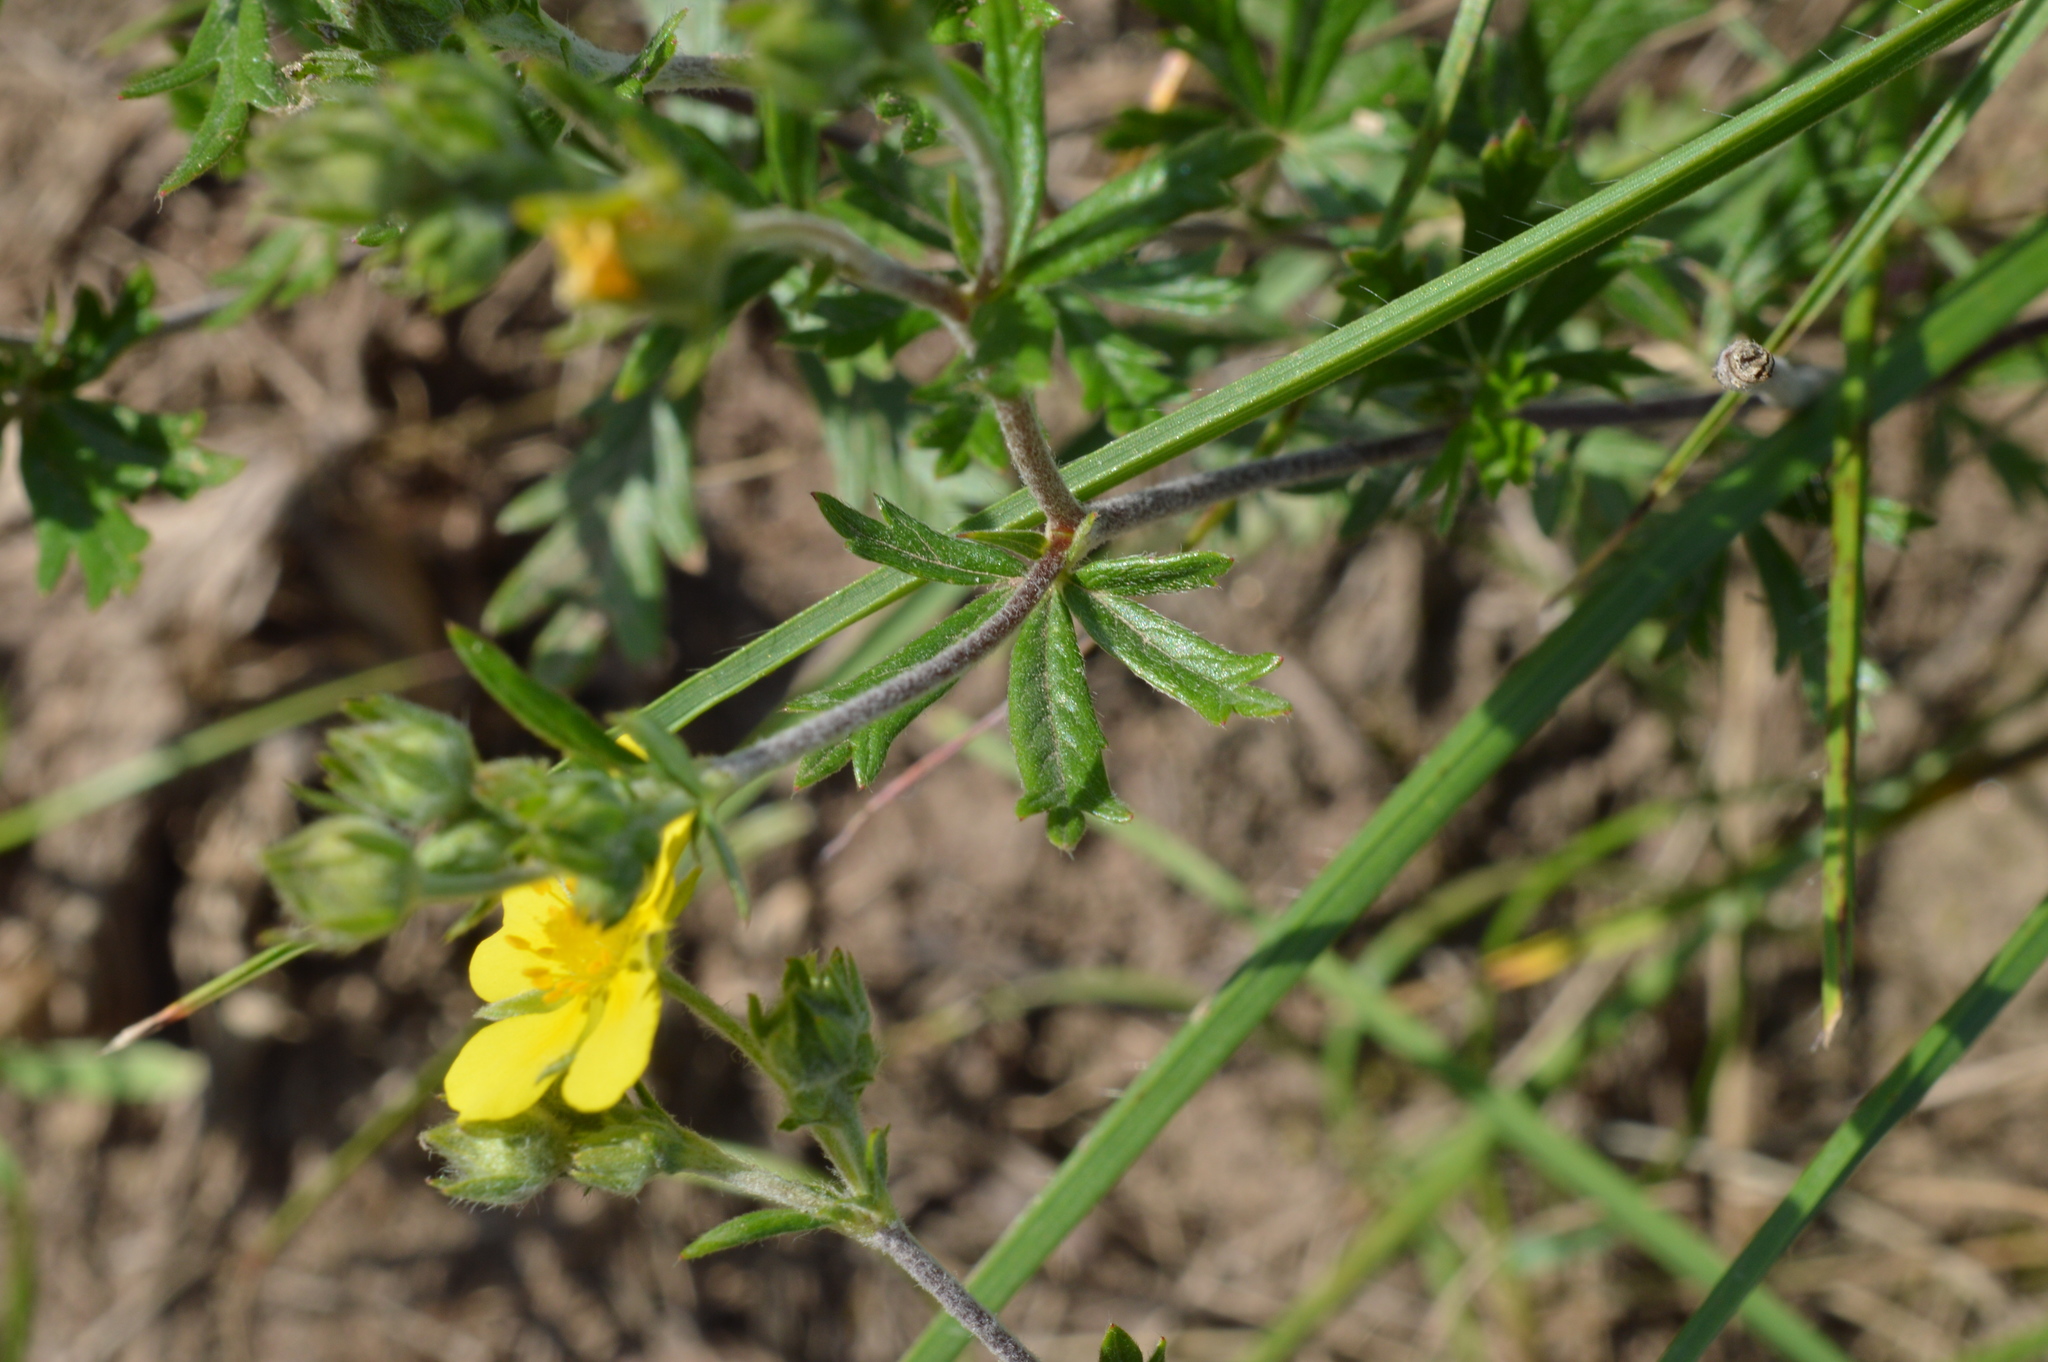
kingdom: Plantae
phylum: Tracheophyta
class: Magnoliopsida
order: Rosales
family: Rosaceae
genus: Potentilla
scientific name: Potentilla argentea
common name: Hoary cinquefoil
